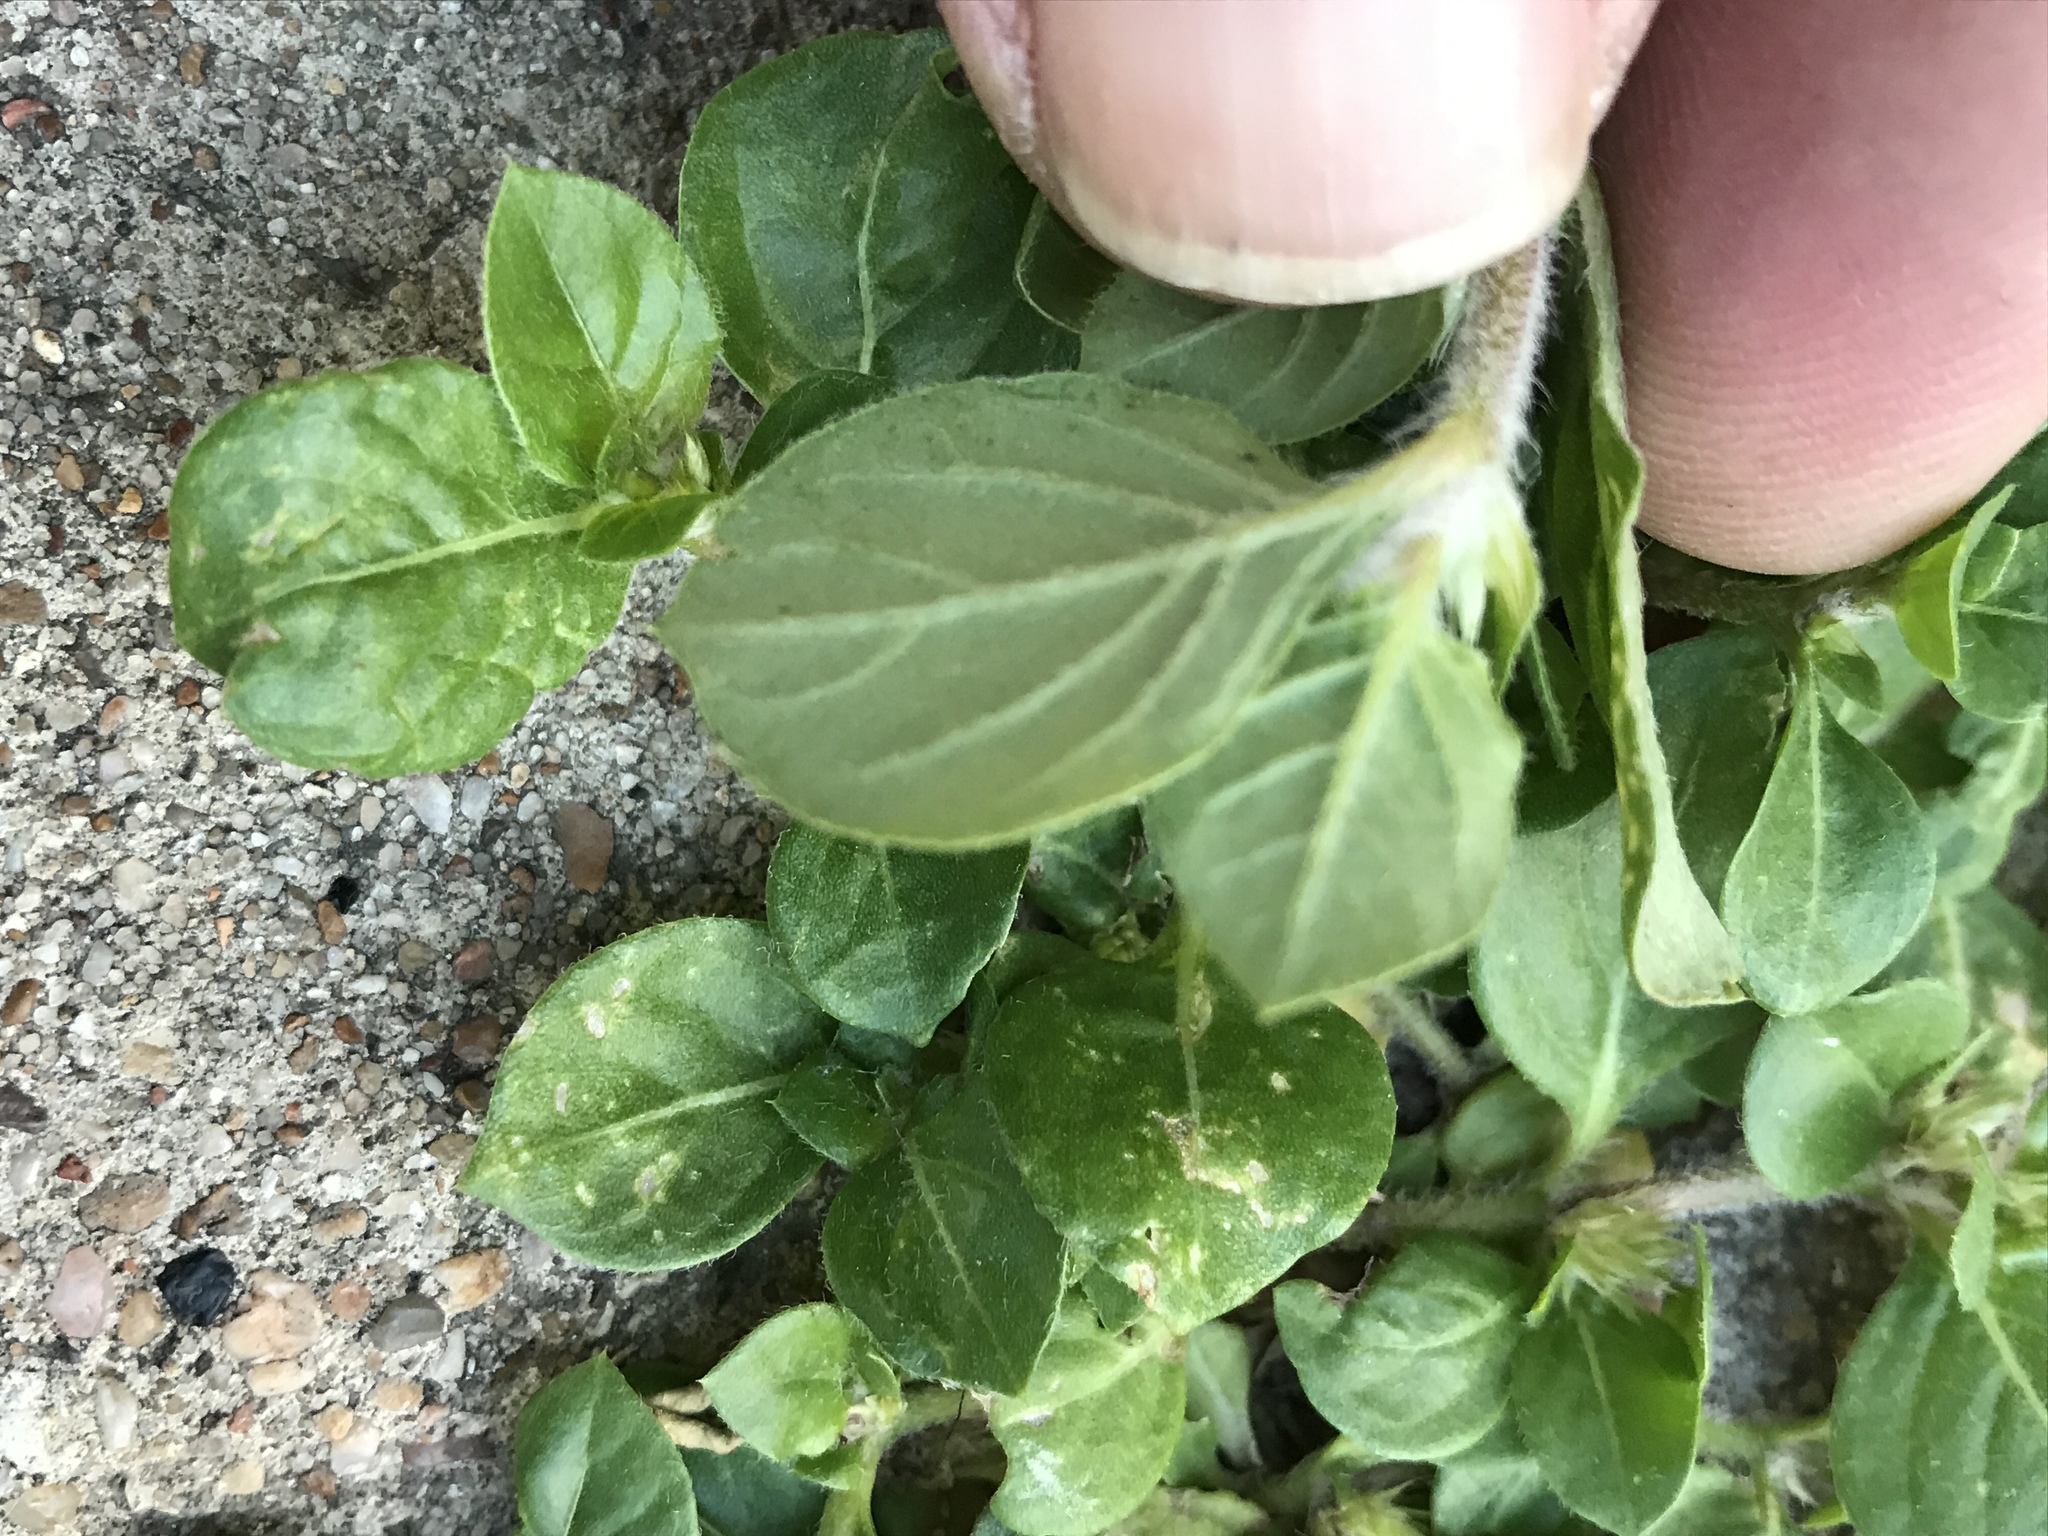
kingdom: Plantae
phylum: Tracheophyta
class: Magnoliopsida
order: Caryophyllales
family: Amaranthaceae
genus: Alternanthera
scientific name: Alternanthera pungens
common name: Khakiweed
